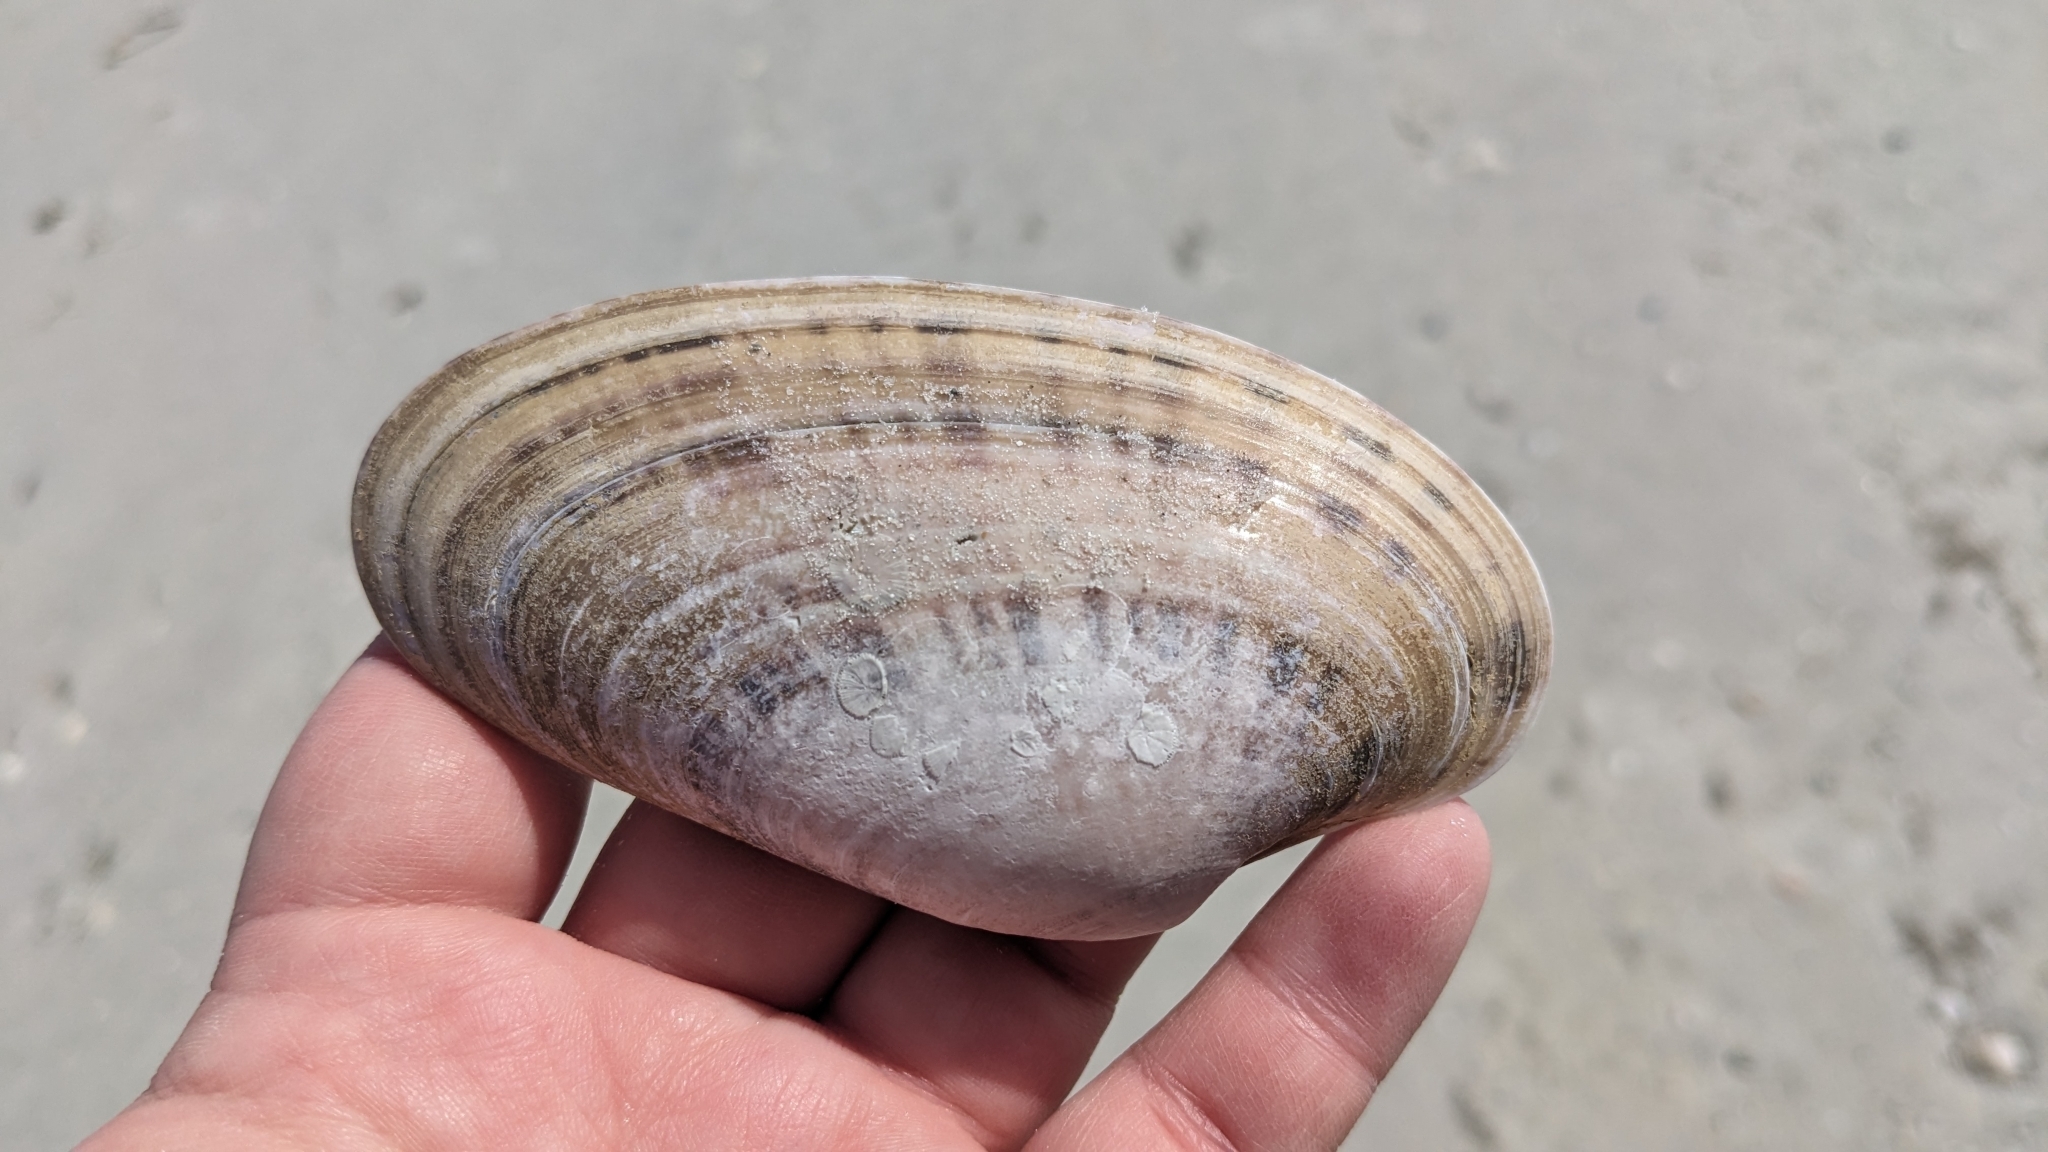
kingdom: Animalia
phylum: Mollusca
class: Bivalvia
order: Venerida
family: Veneridae
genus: Macrocallista
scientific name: Macrocallista nimbosa
